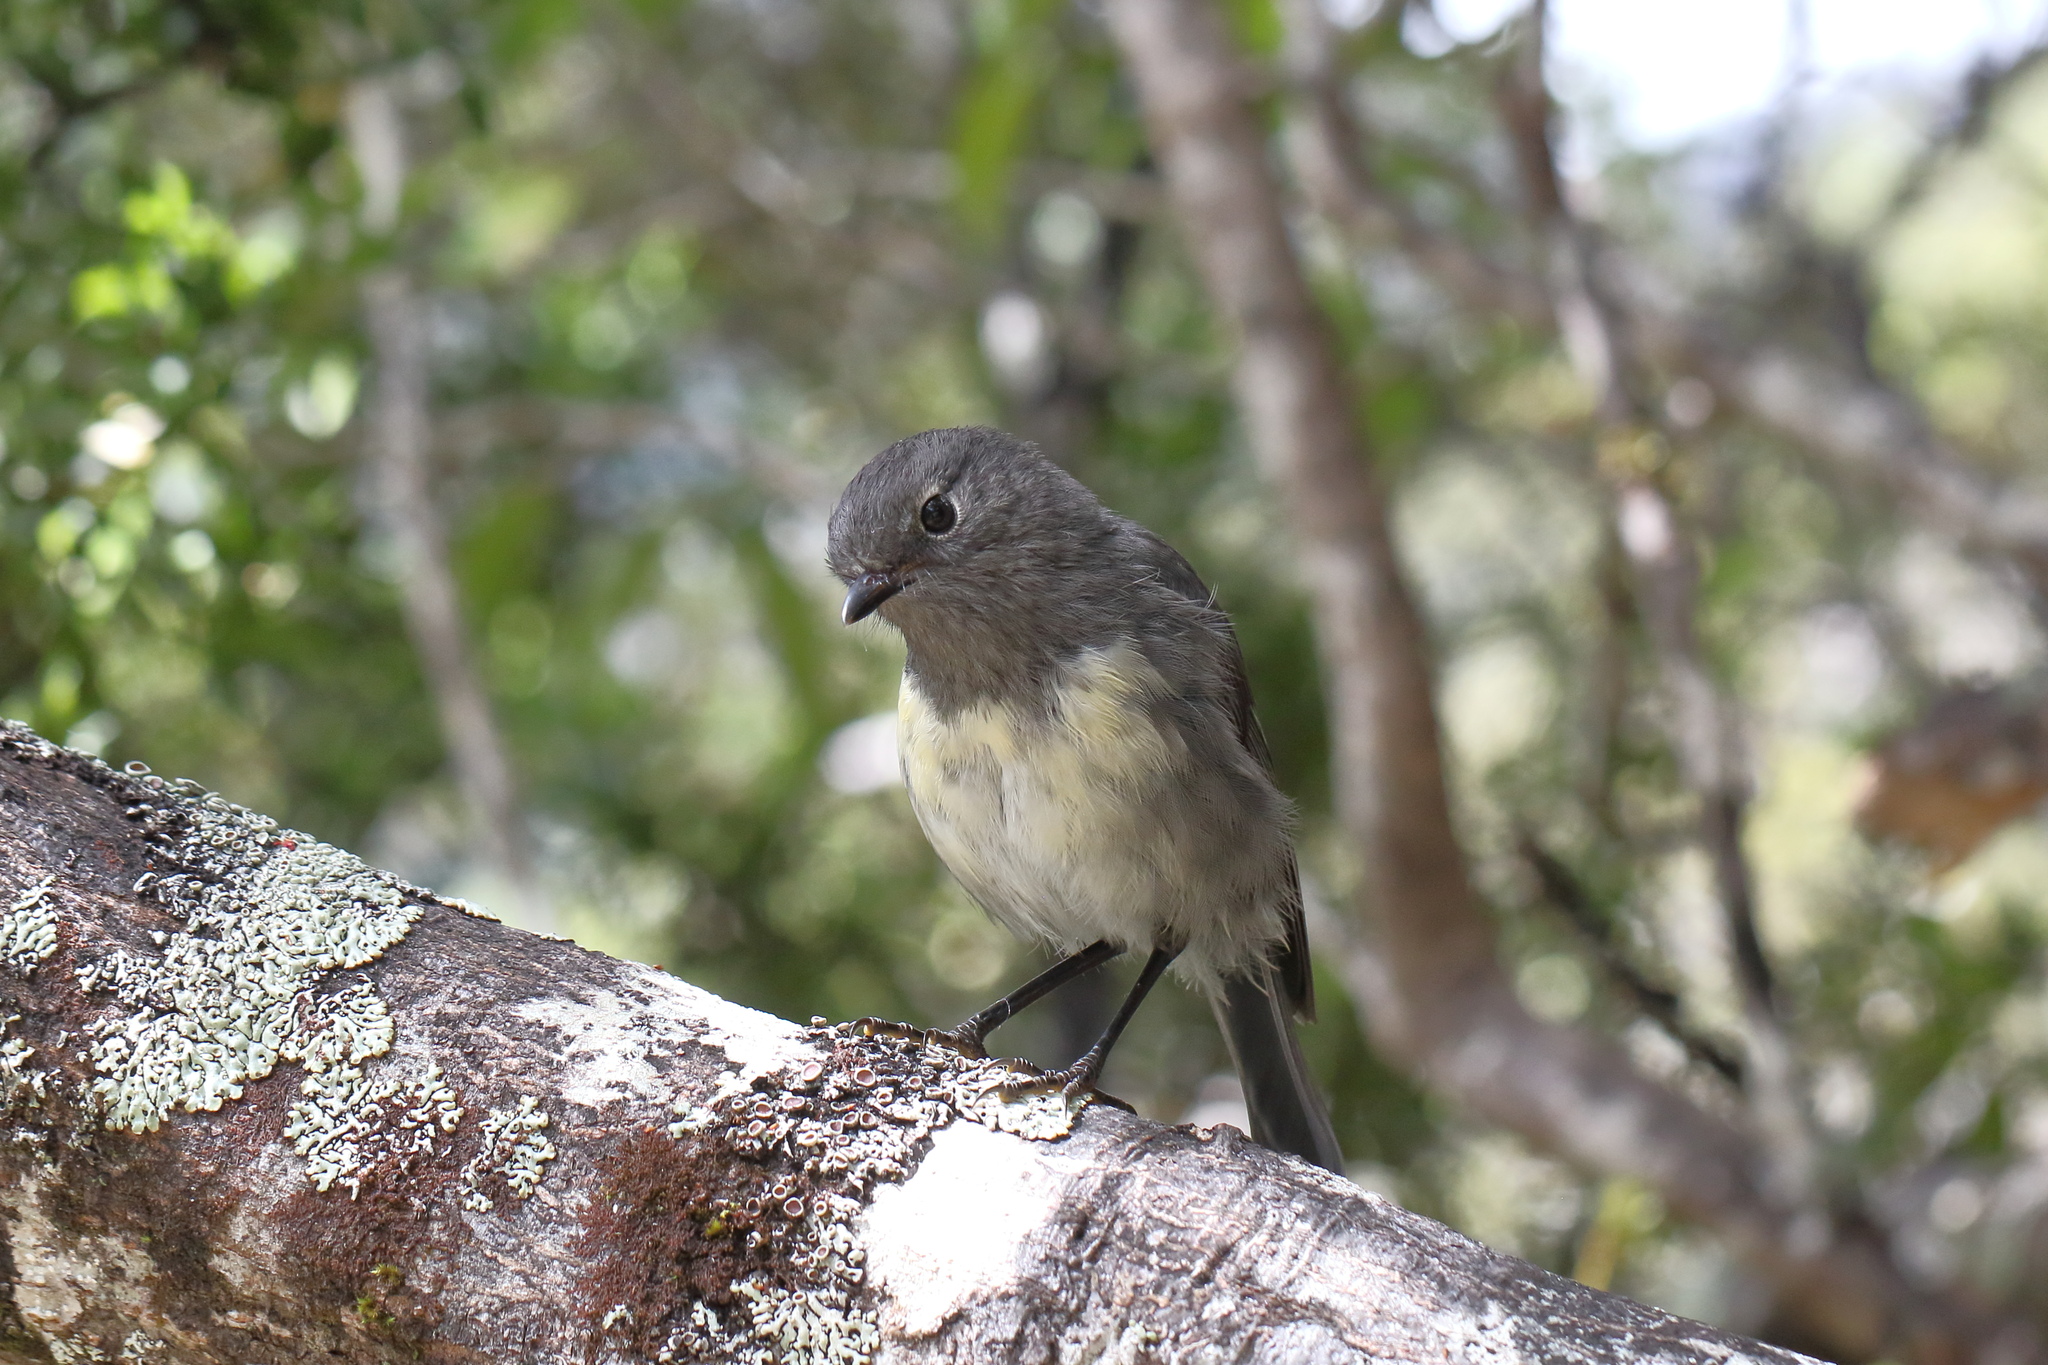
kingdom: Animalia
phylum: Chordata
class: Aves
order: Passeriformes
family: Petroicidae
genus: Petroica
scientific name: Petroica australis
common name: New zealand robin
